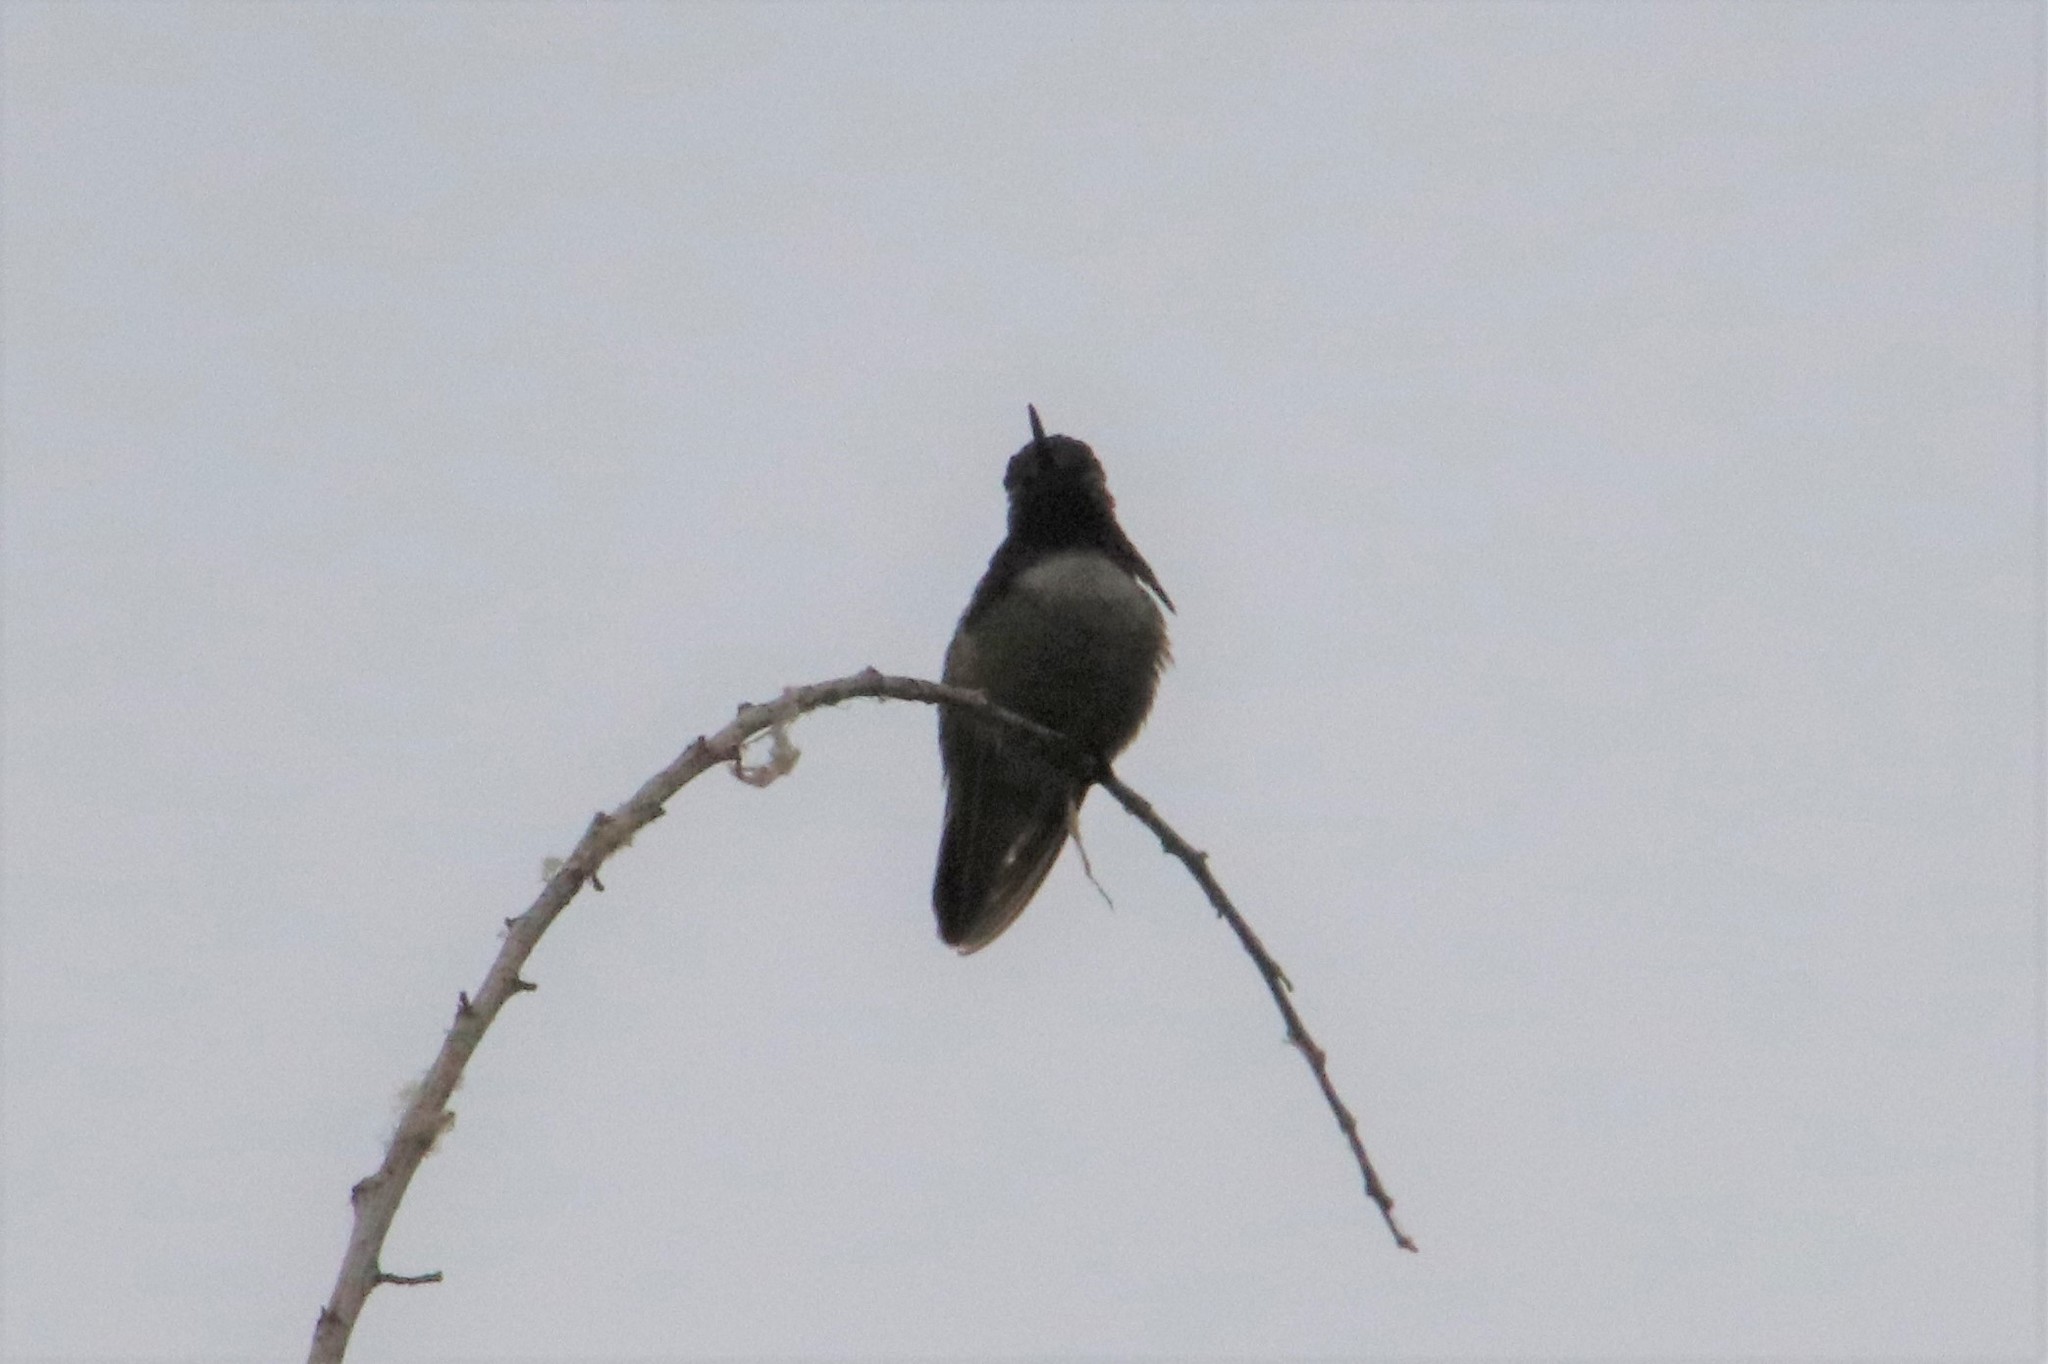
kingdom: Animalia
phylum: Chordata
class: Aves
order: Apodiformes
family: Trochilidae
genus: Calypte
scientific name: Calypte costae
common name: Costa's hummingbird
